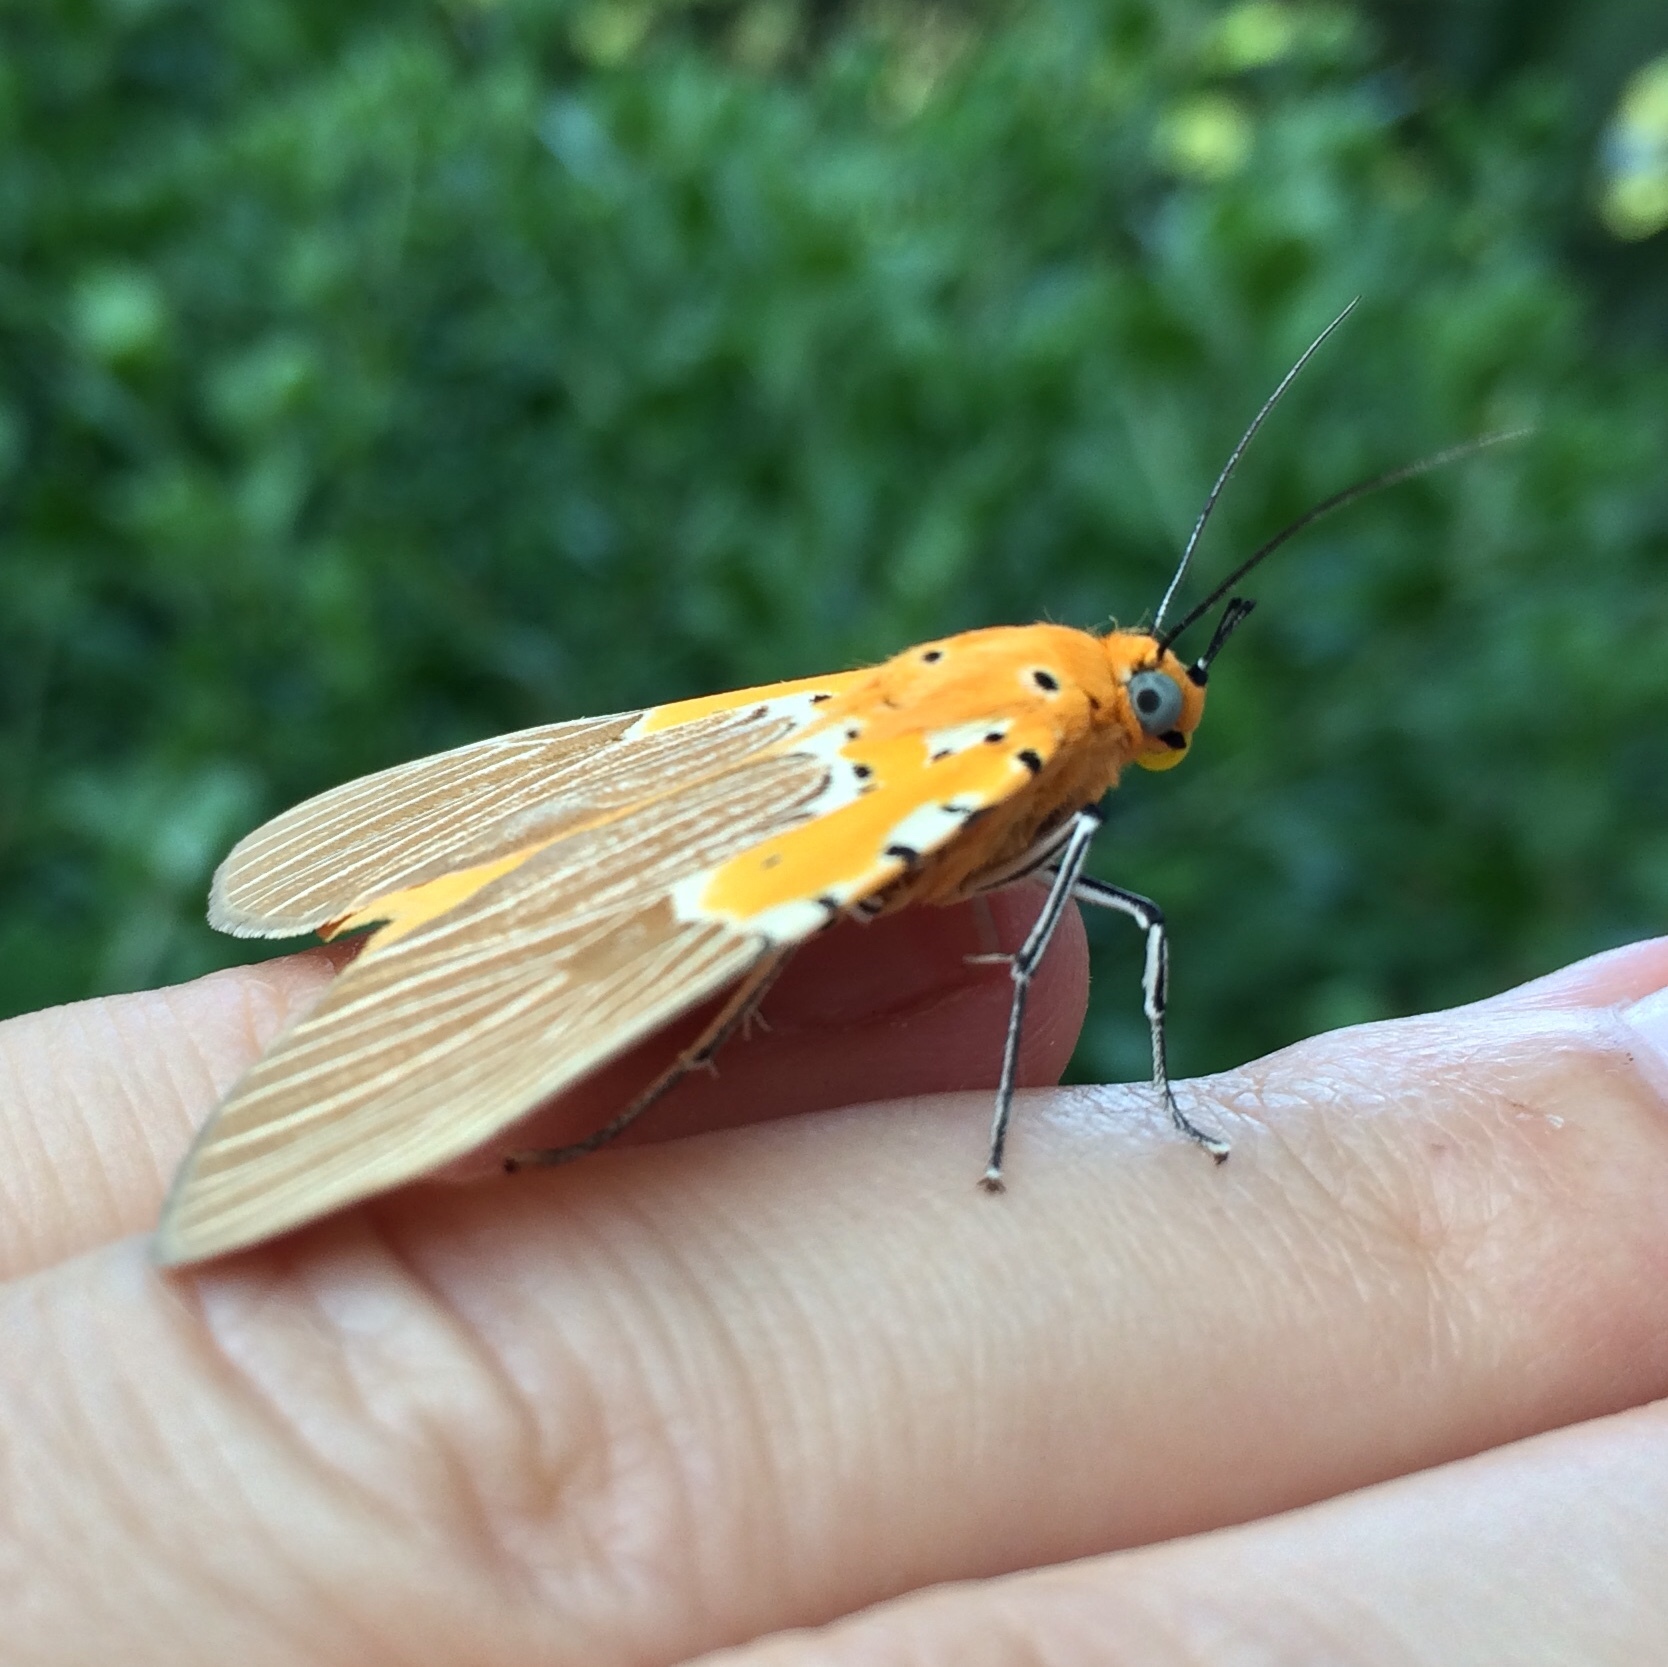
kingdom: Animalia
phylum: Arthropoda
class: Insecta
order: Lepidoptera
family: Erebidae
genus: Asota
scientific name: Asota speciosa
